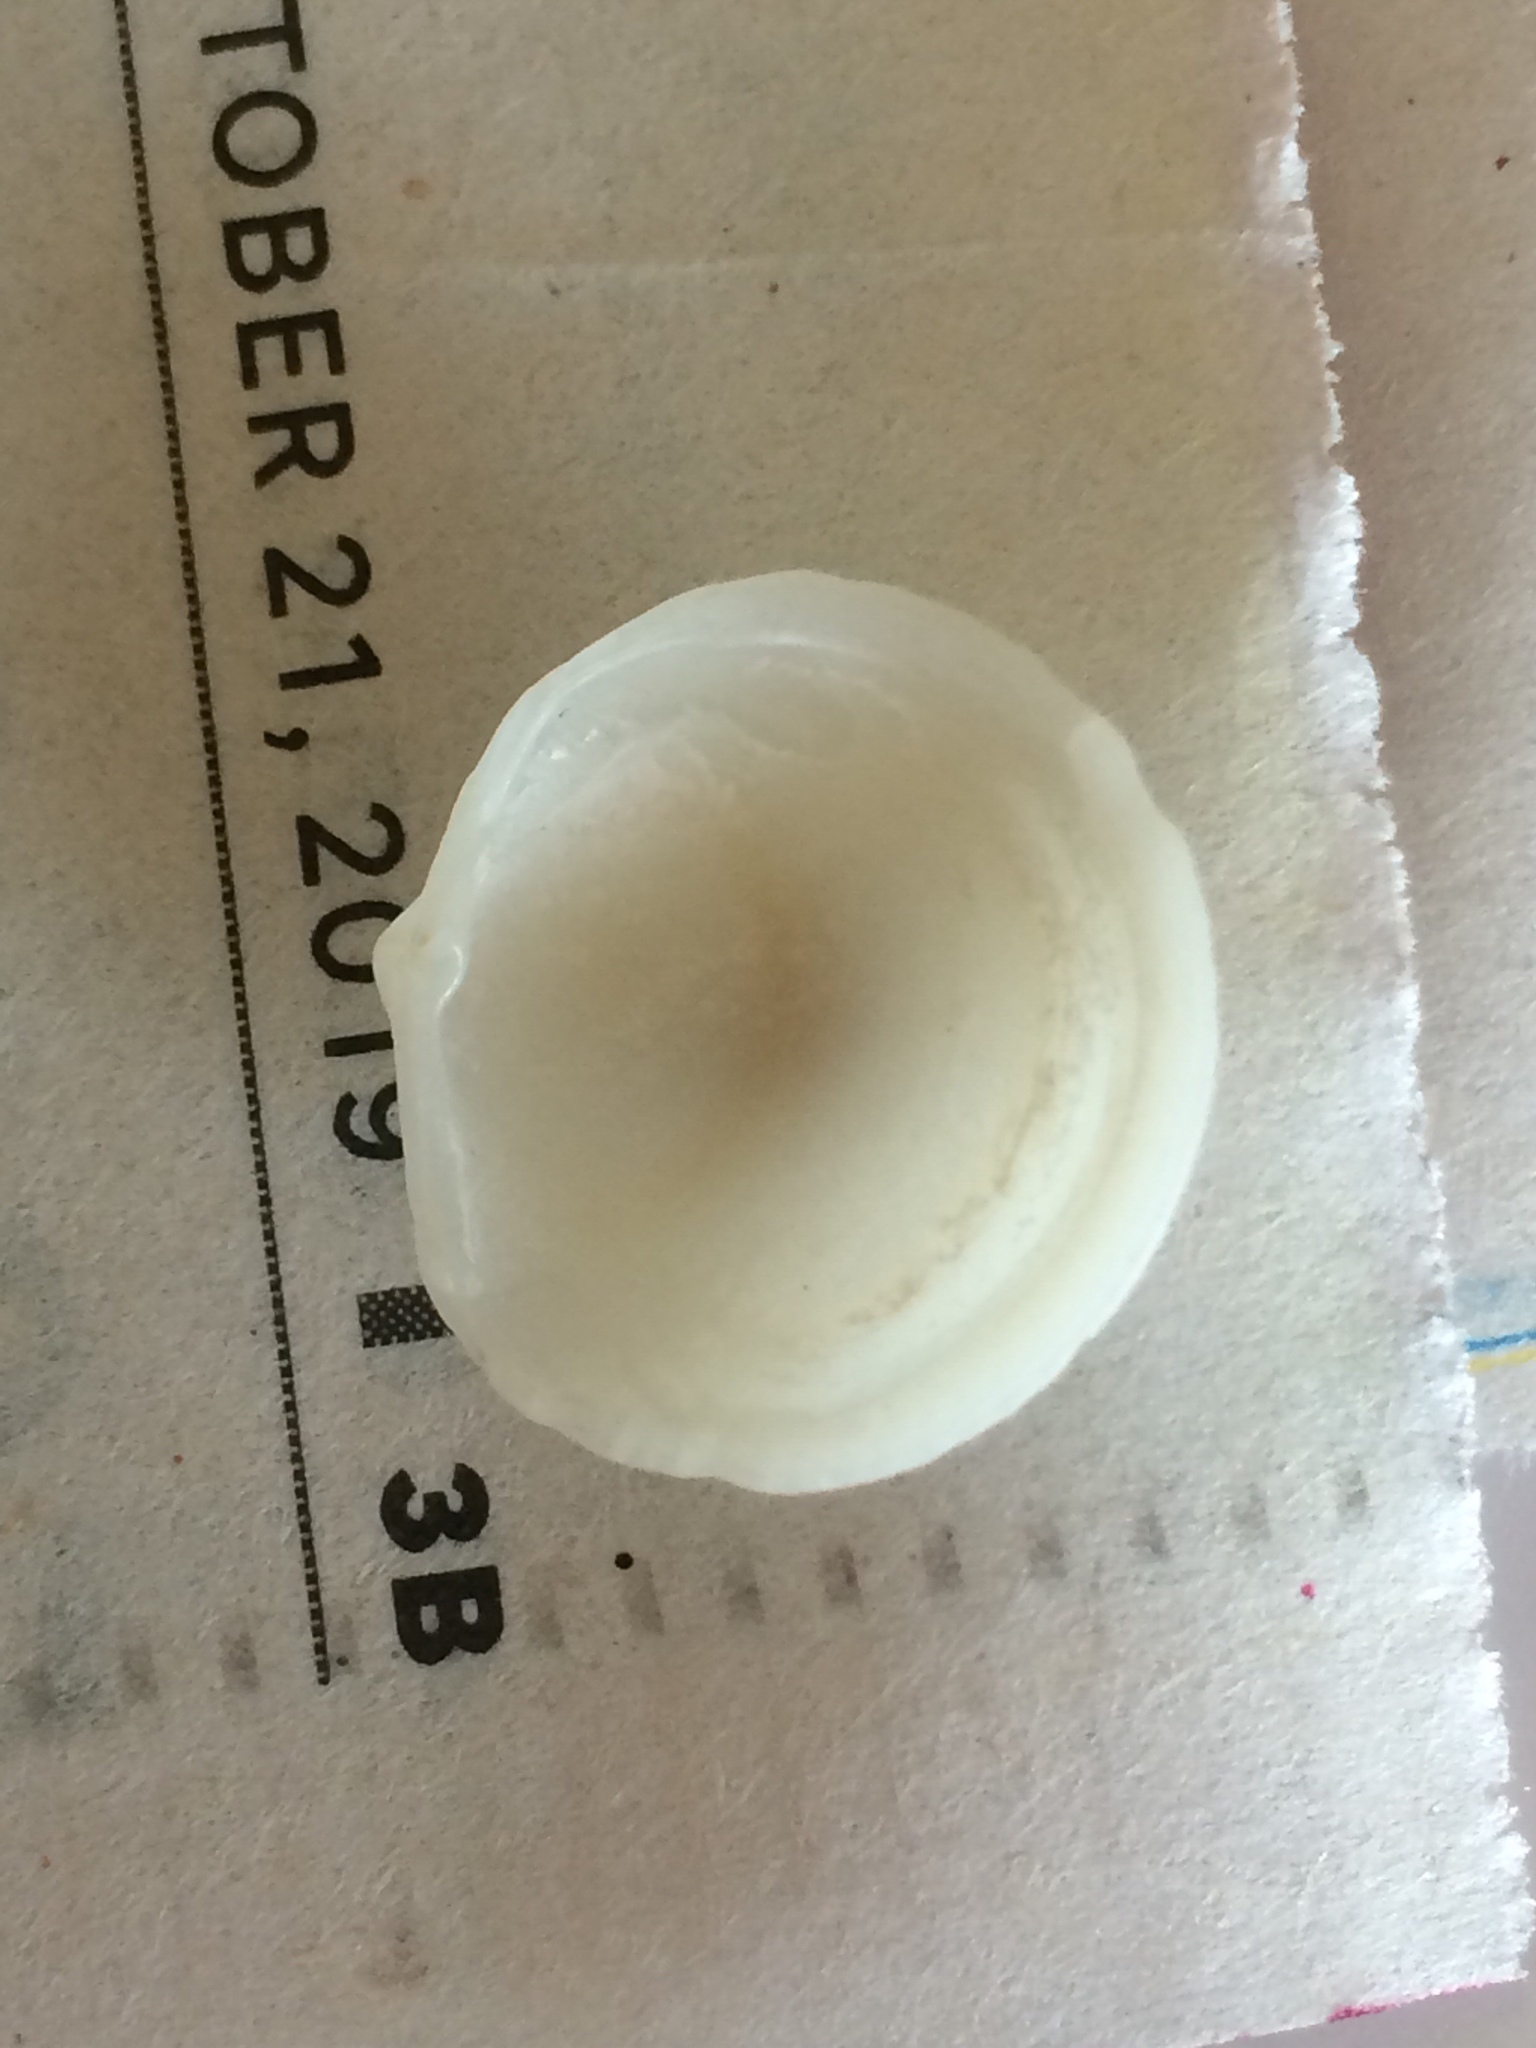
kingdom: Animalia
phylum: Mollusca
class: Bivalvia
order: Lucinida
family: Lucinidae
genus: Divalinga
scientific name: Divalinga quadrisulcata
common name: Cross-hatched lucine
